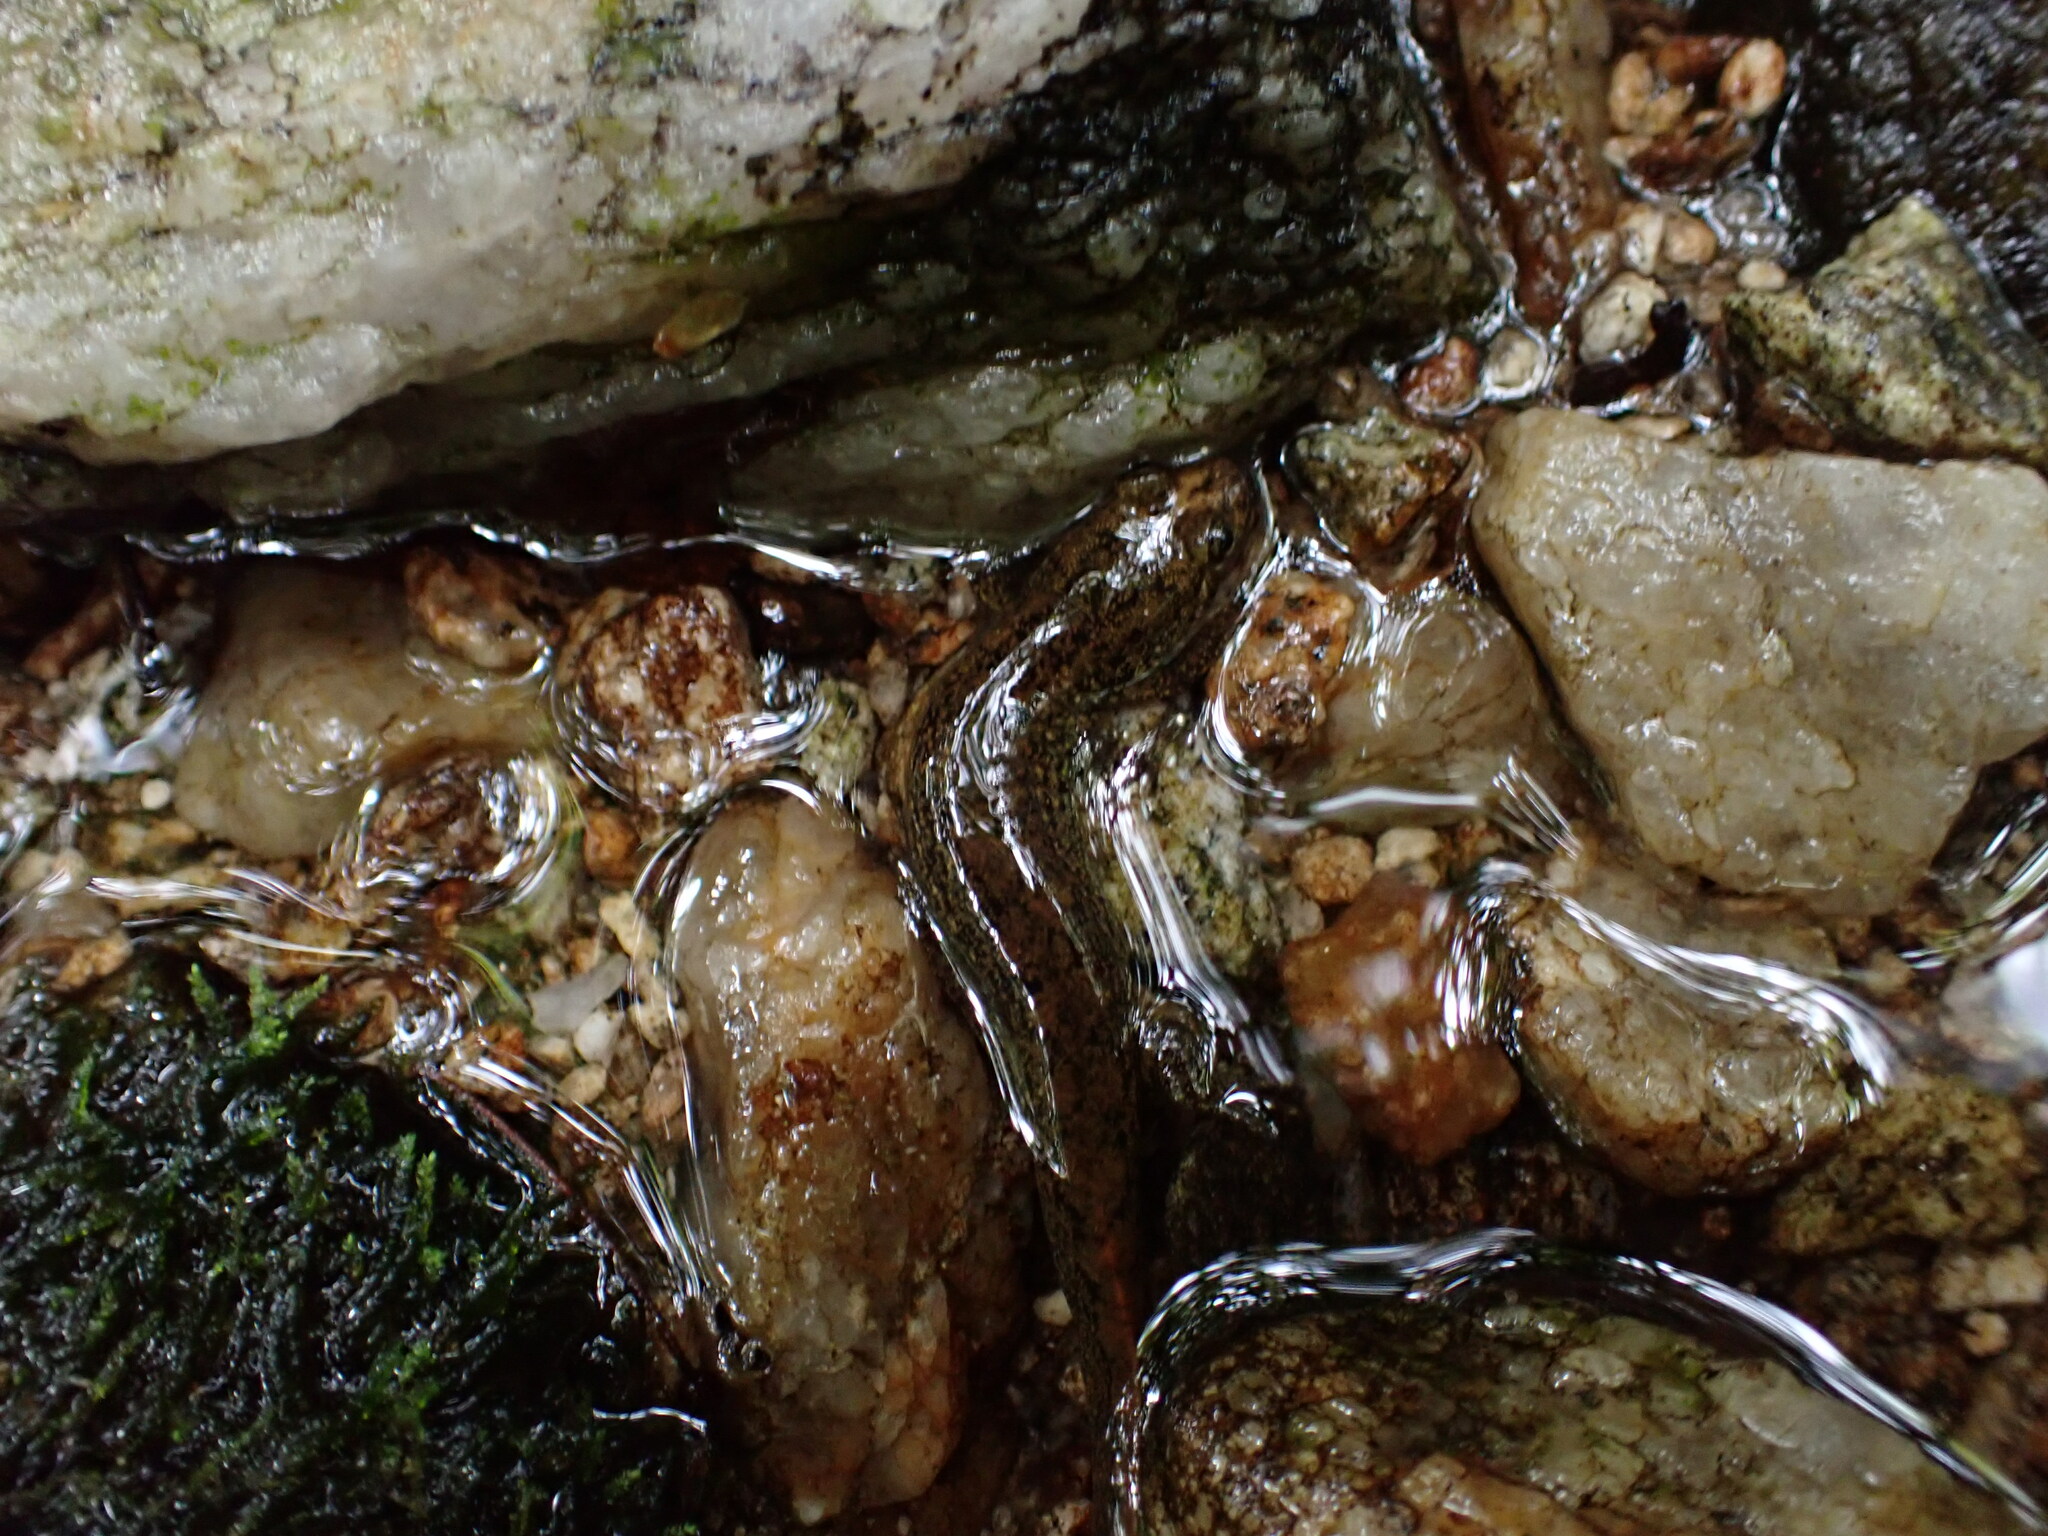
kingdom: Animalia
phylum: Chordata
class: Amphibia
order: Caudata
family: Plethodontidae
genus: Desmognathus
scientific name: Desmognathus
